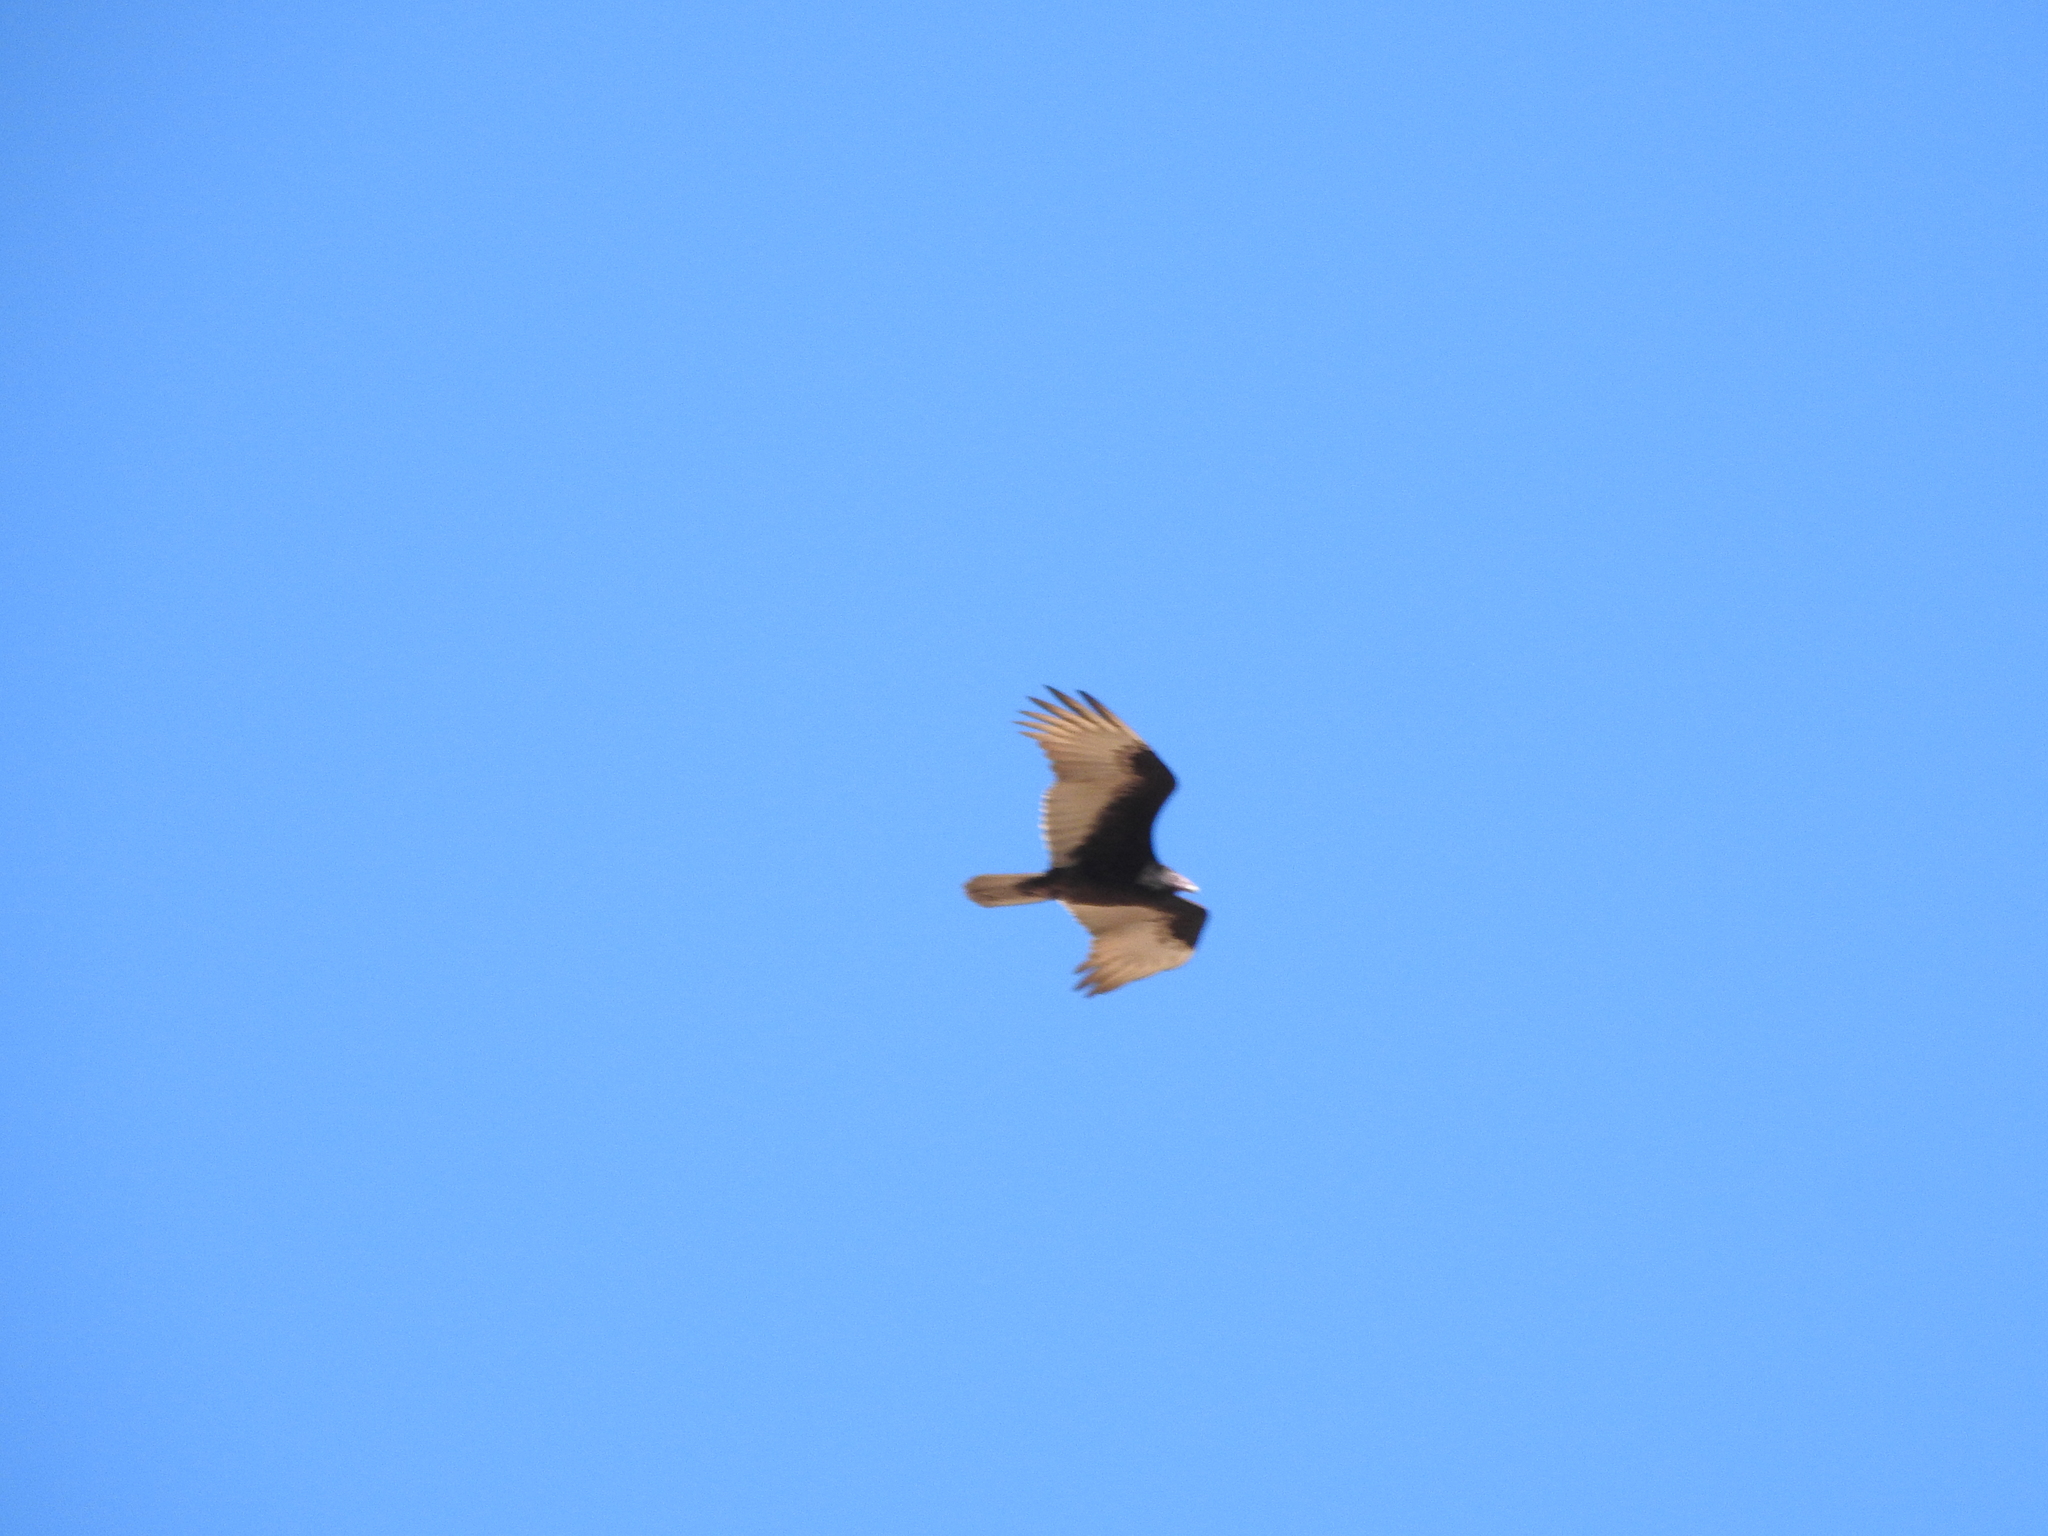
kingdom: Animalia
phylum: Chordata
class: Aves
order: Accipitriformes
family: Cathartidae
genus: Cathartes
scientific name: Cathartes aura
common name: Turkey vulture
